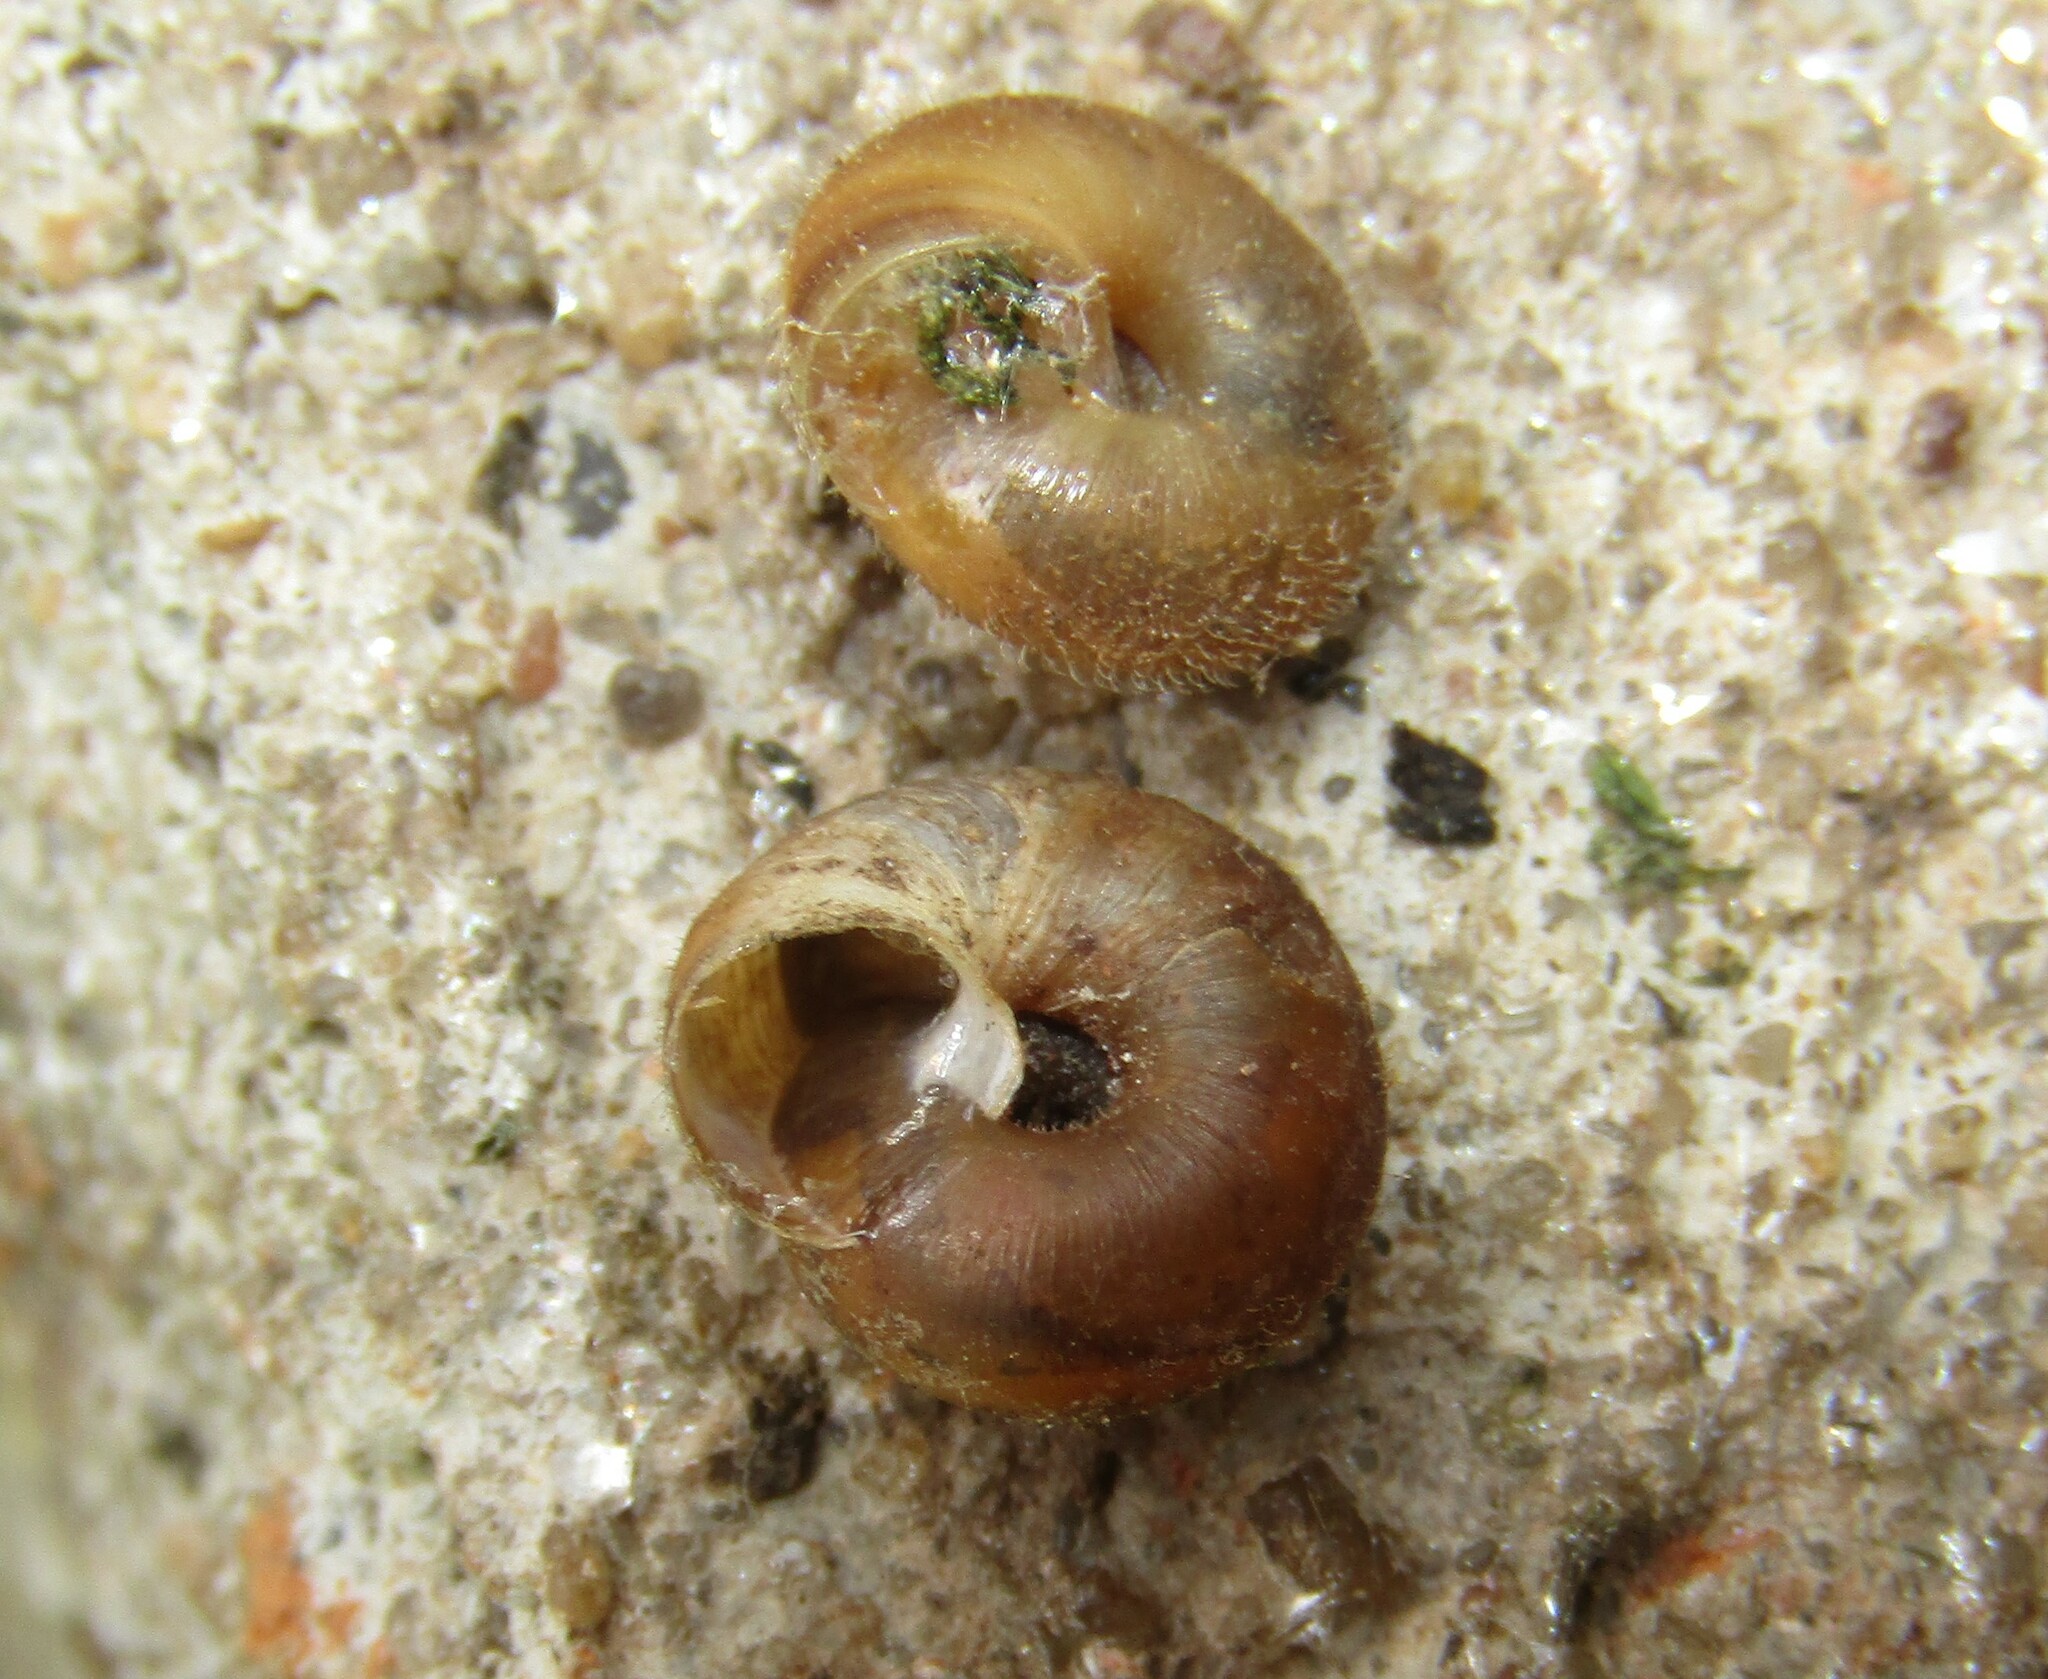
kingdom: Animalia
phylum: Mollusca
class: Gastropoda
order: Stylommatophora
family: Hygromiidae
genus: Trochulus
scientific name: Trochulus hispidus
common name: Hairy snail
